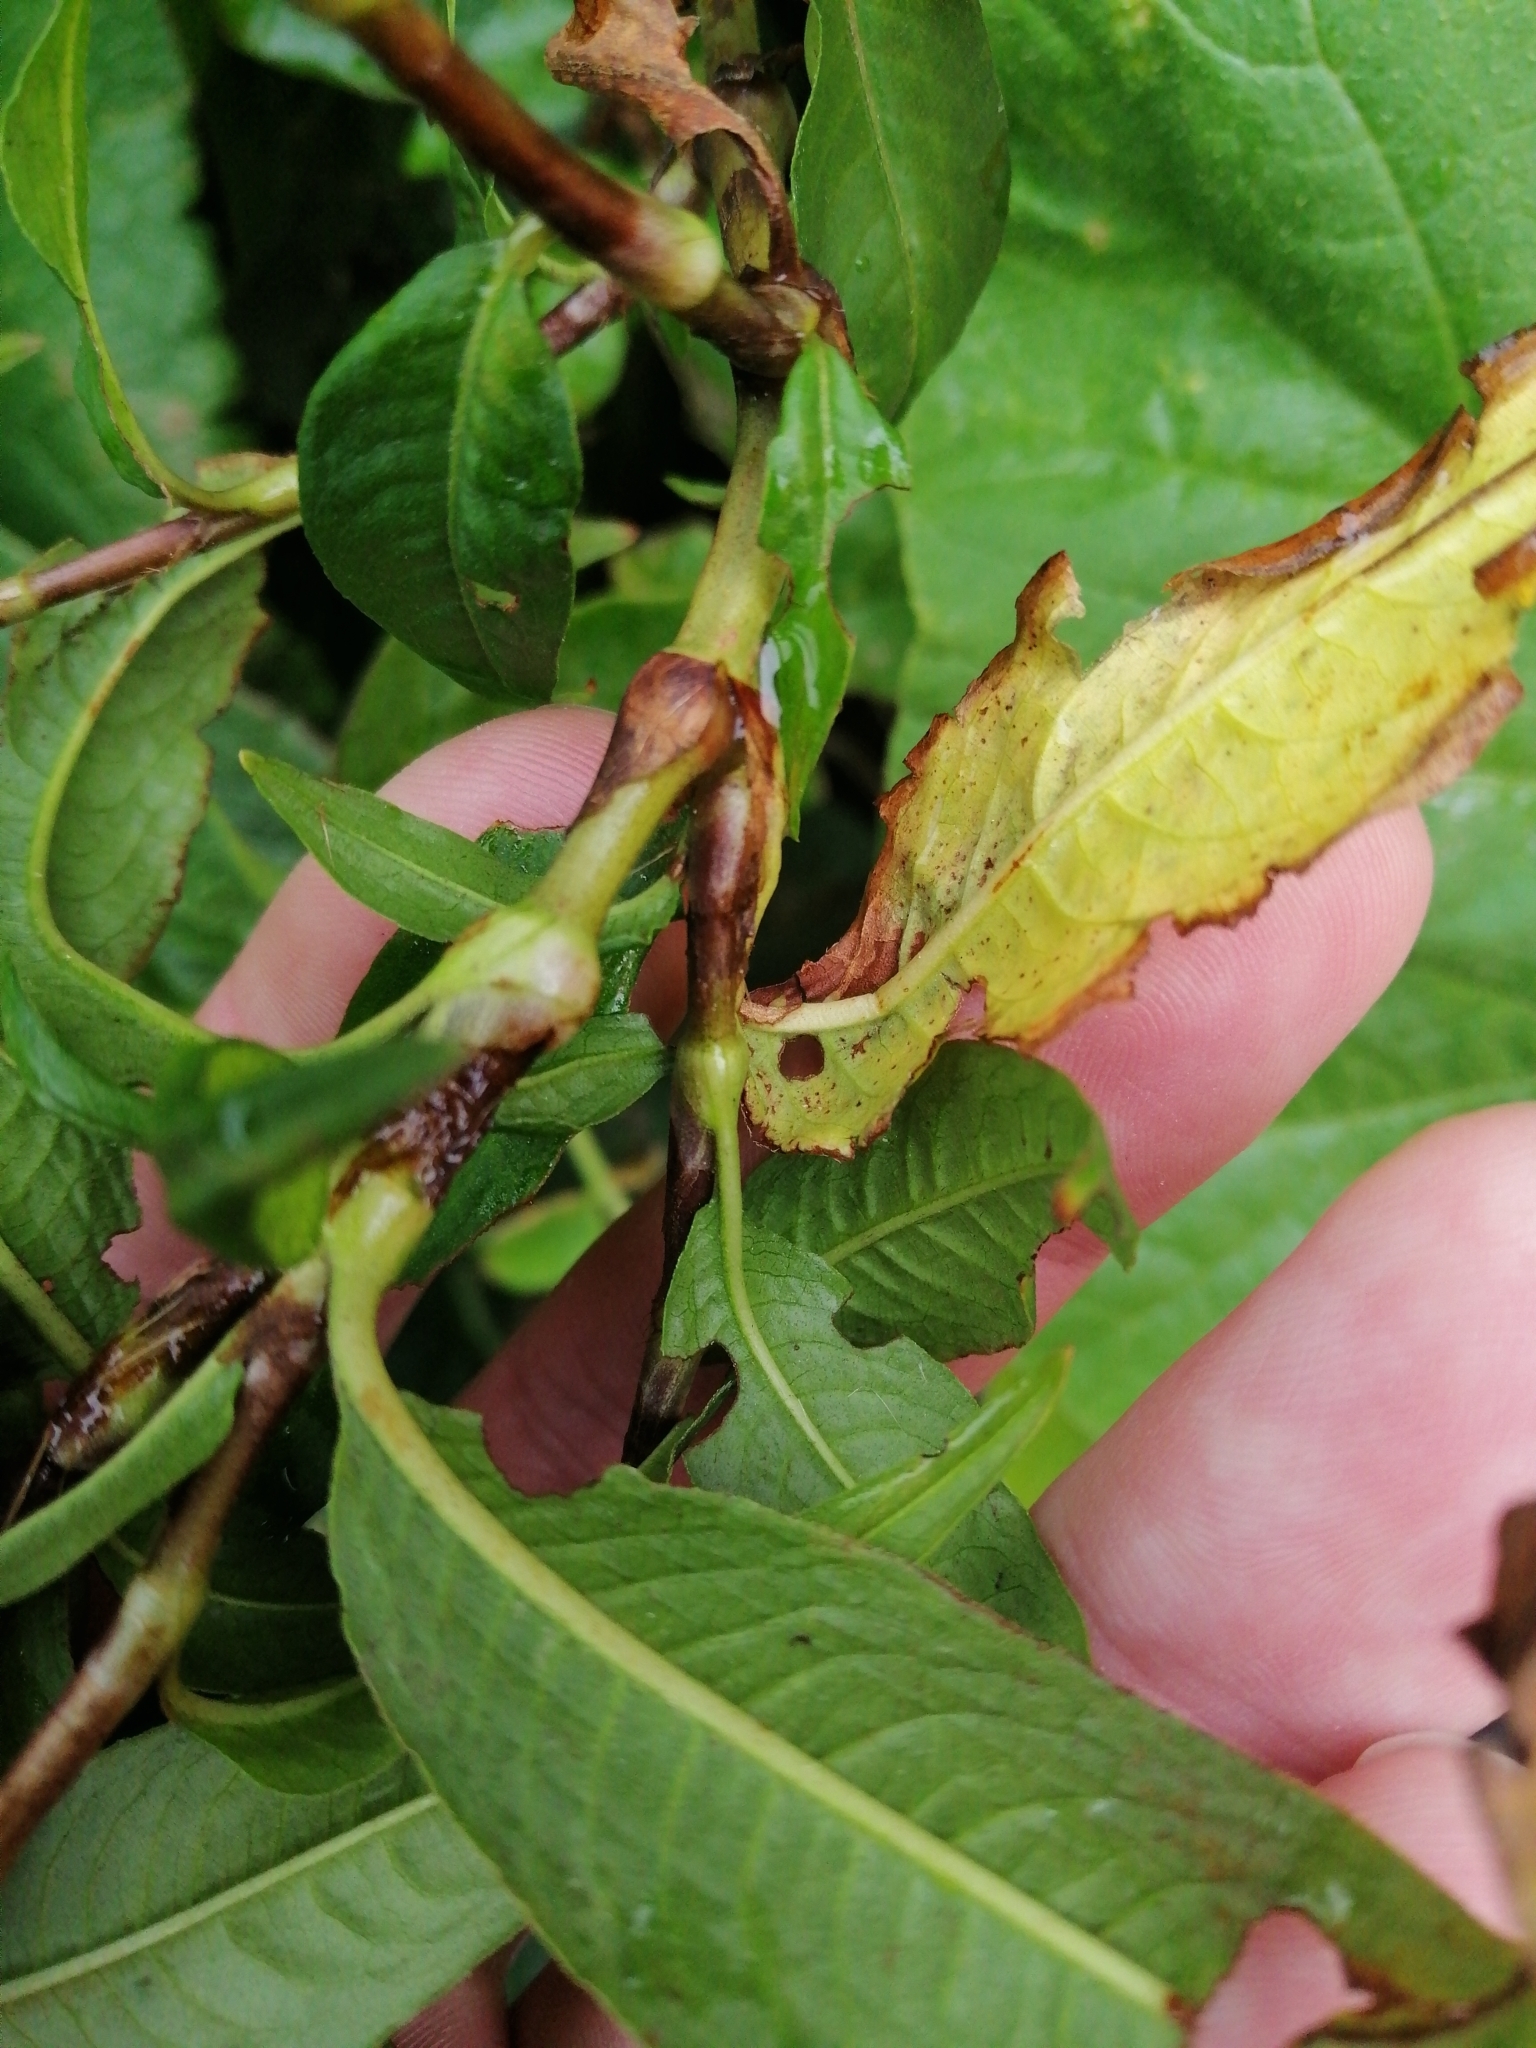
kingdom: Plantae
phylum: Tracheophyta
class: Magnoliopsida
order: Caryophyllales
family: Polygonaceae
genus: Persicaria
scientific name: Persicaria maculosa
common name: Redshank
